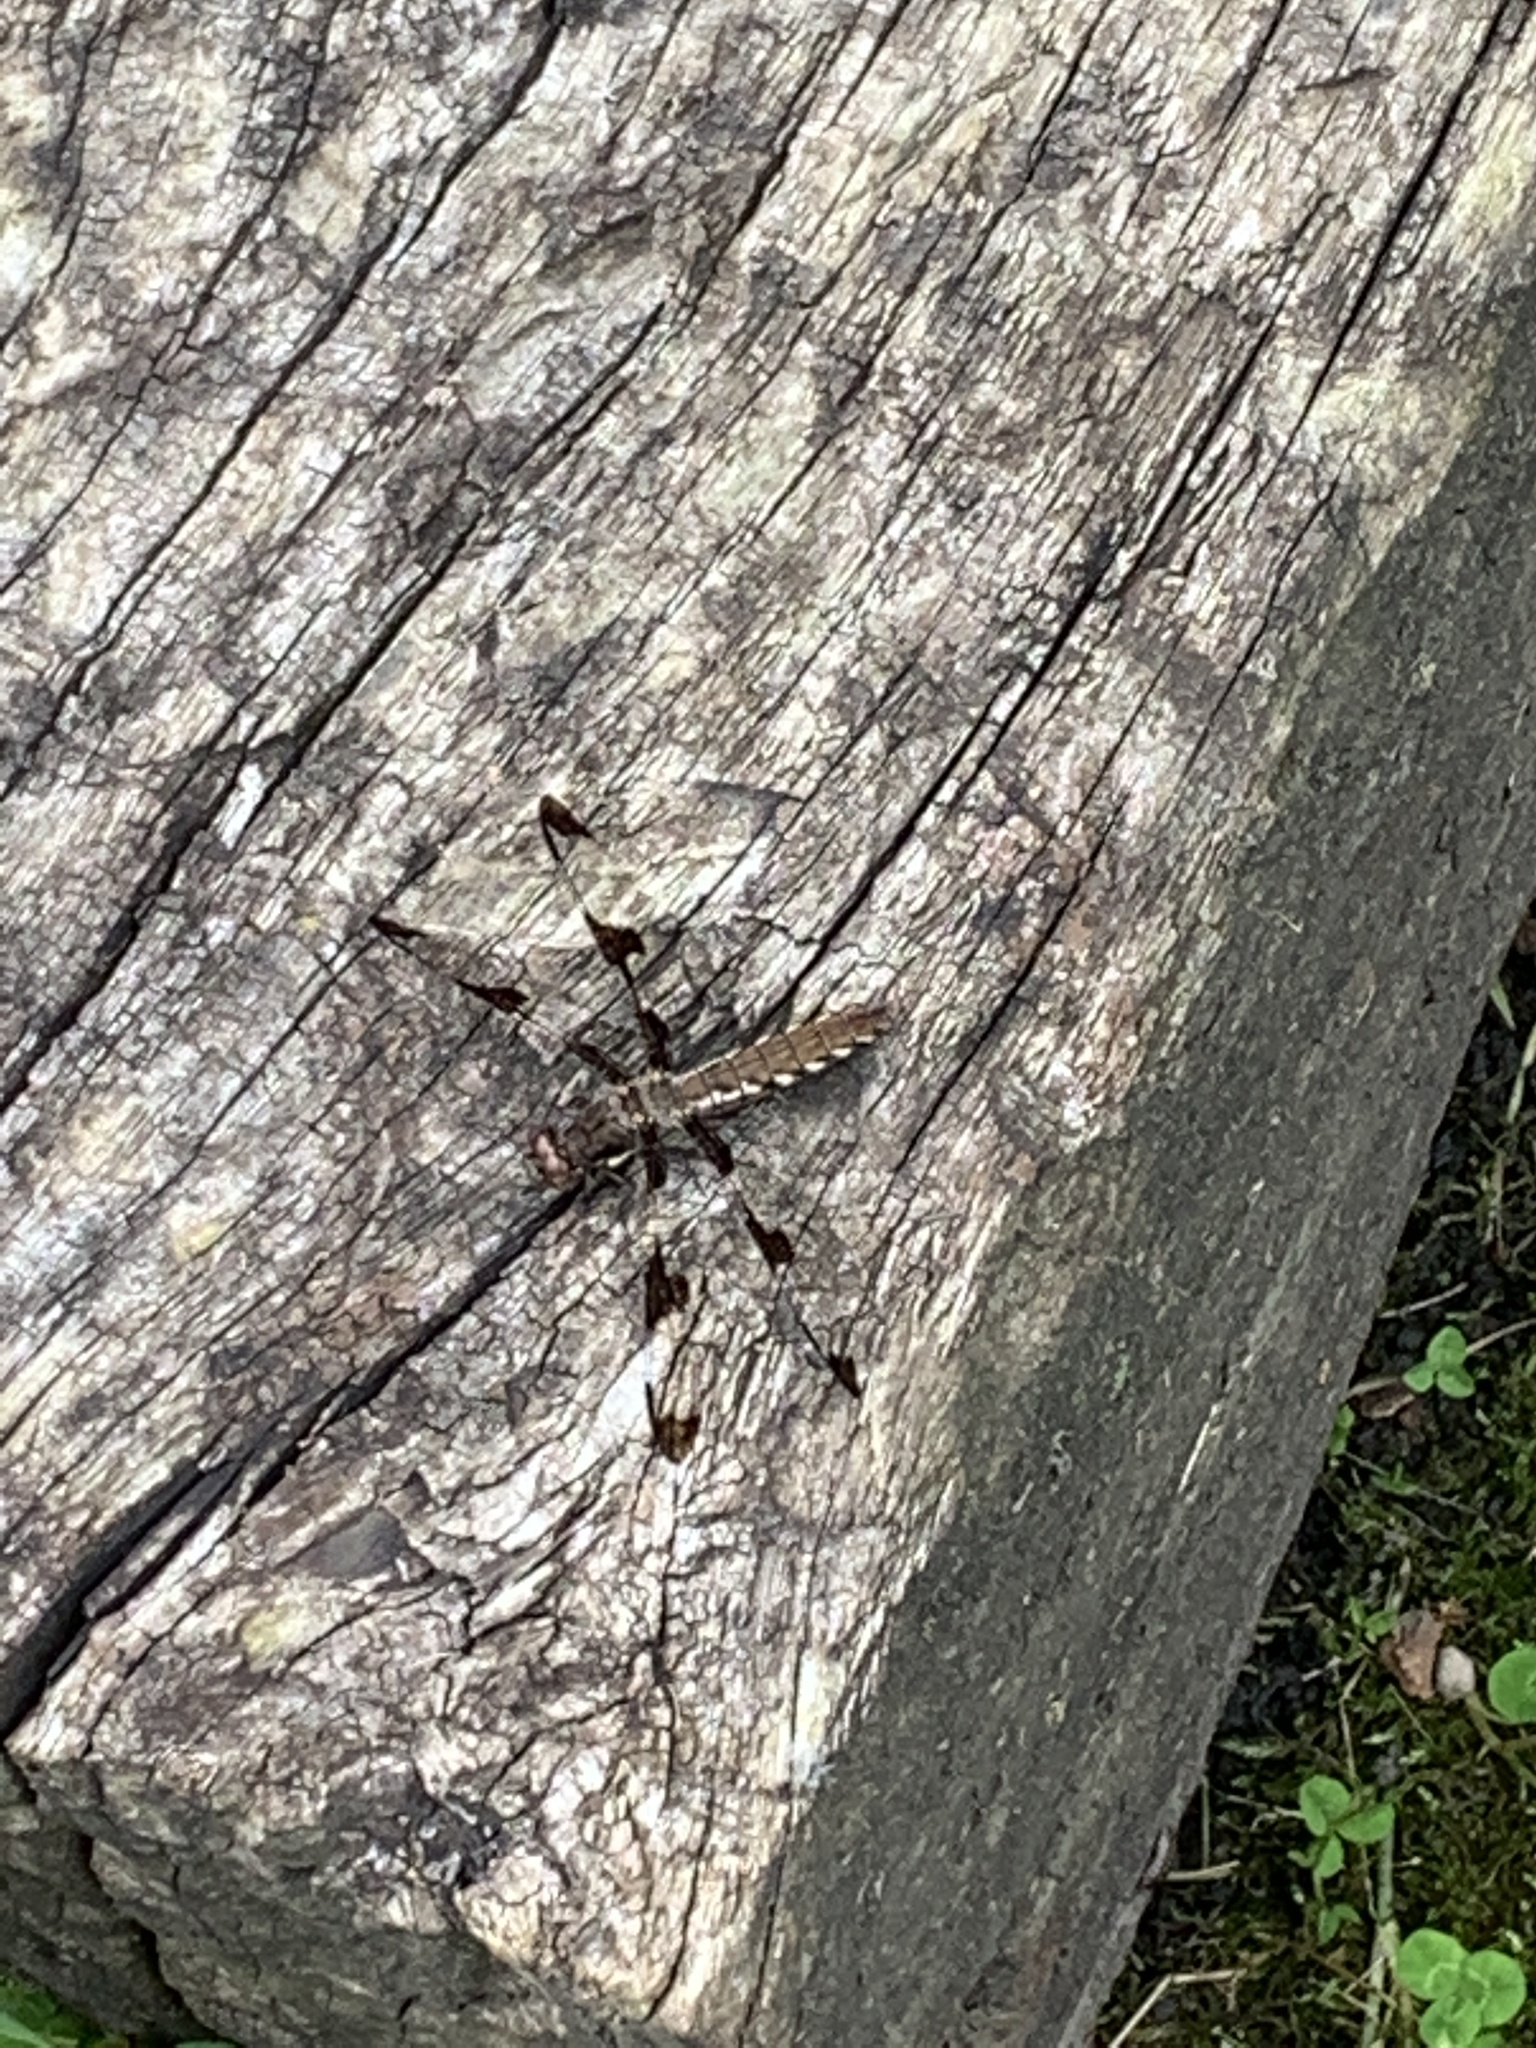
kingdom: Animalia
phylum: Arthropoda
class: Insecta
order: Odonata
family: Libellulidae
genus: Plathemis
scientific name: Plathemis lydia
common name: Common whitetail
